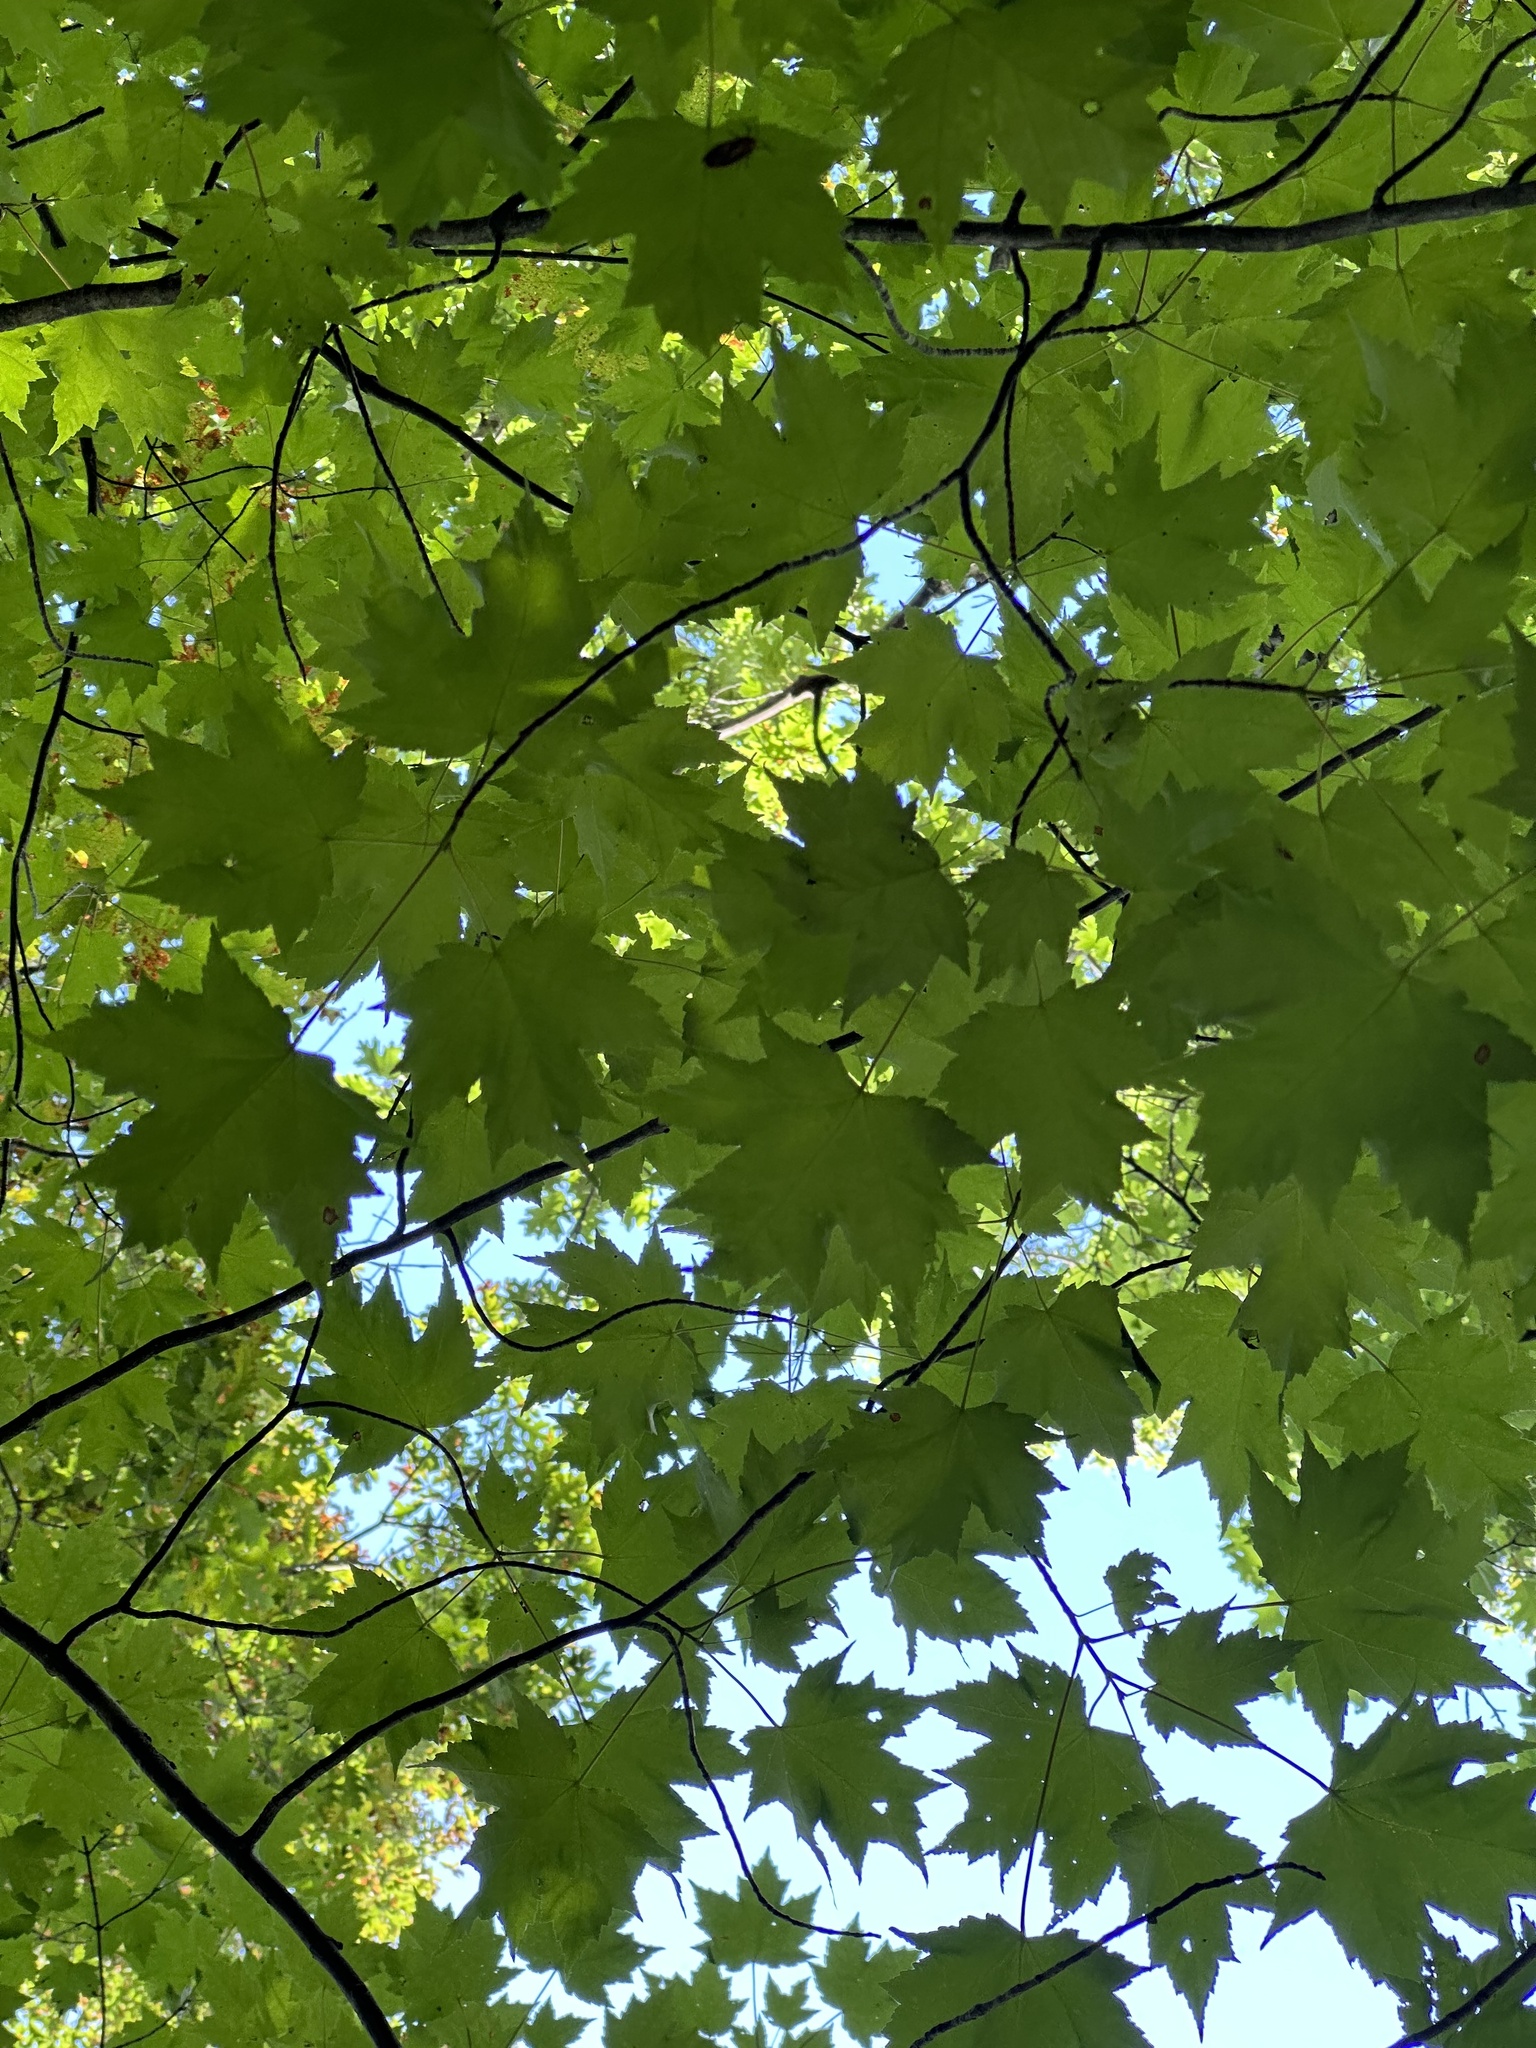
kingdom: Plantae
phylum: Tracheophyta
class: Magnoliopsida
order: Sapindales
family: Sapindaceae
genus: Acer
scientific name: Acer rubrum
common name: Red maple
